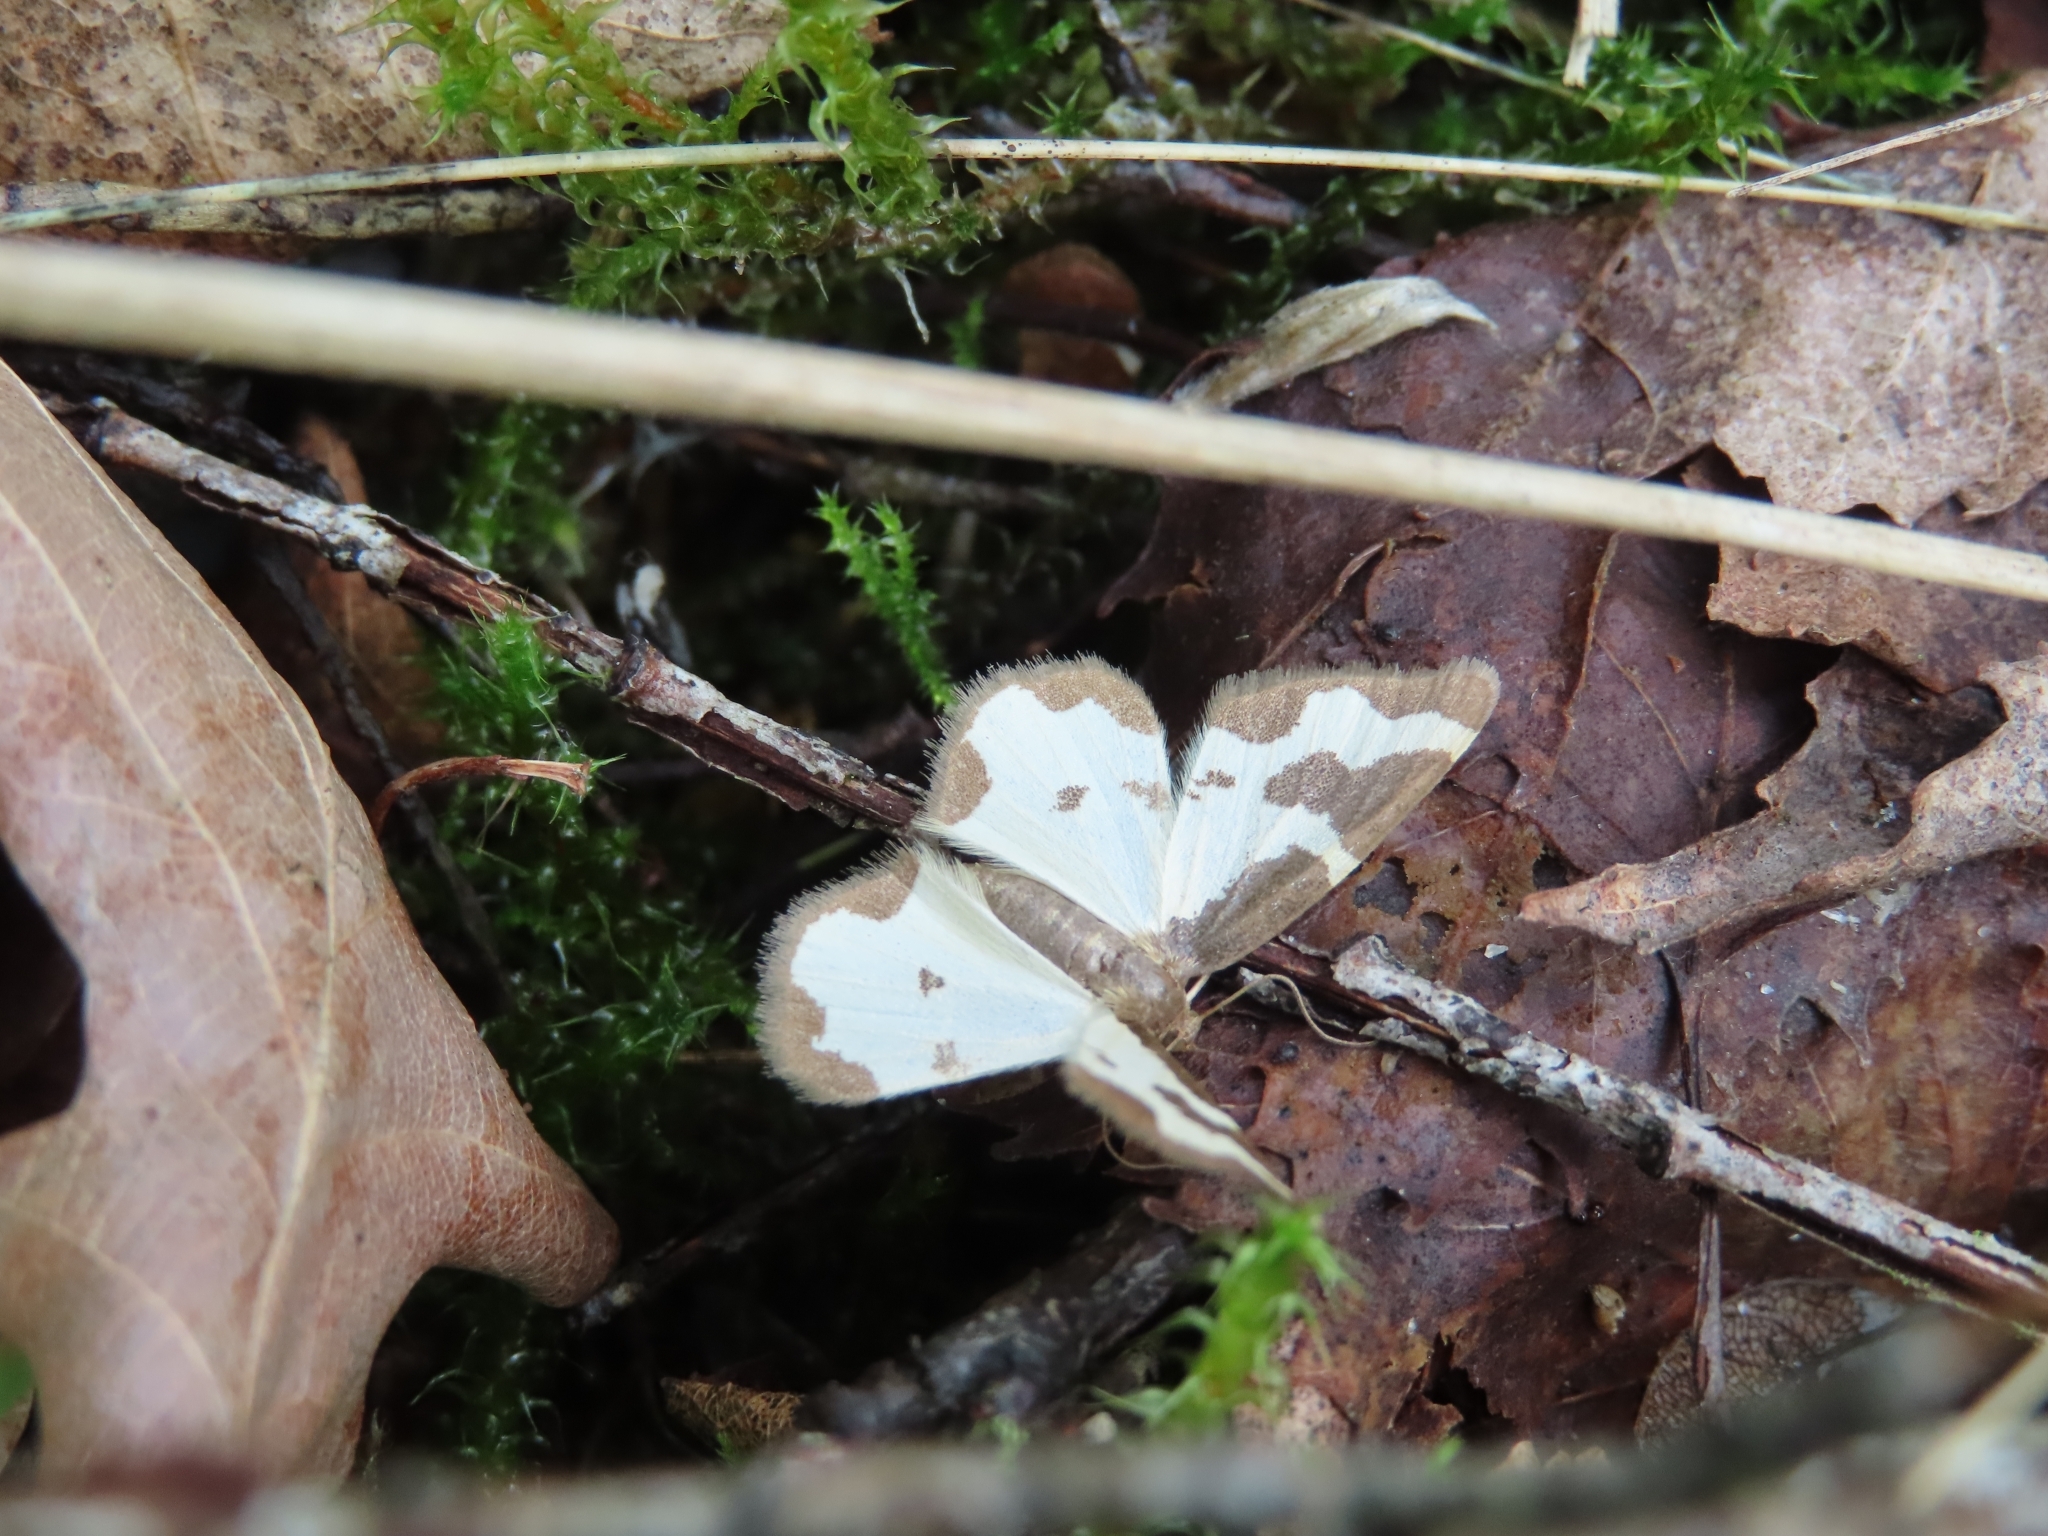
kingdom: Animalia
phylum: Arthropoda
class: Insecta
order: Lepidoptera
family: Geometridae
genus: Lomaspilis
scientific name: Lomaspilis marginata
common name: Clouded border
